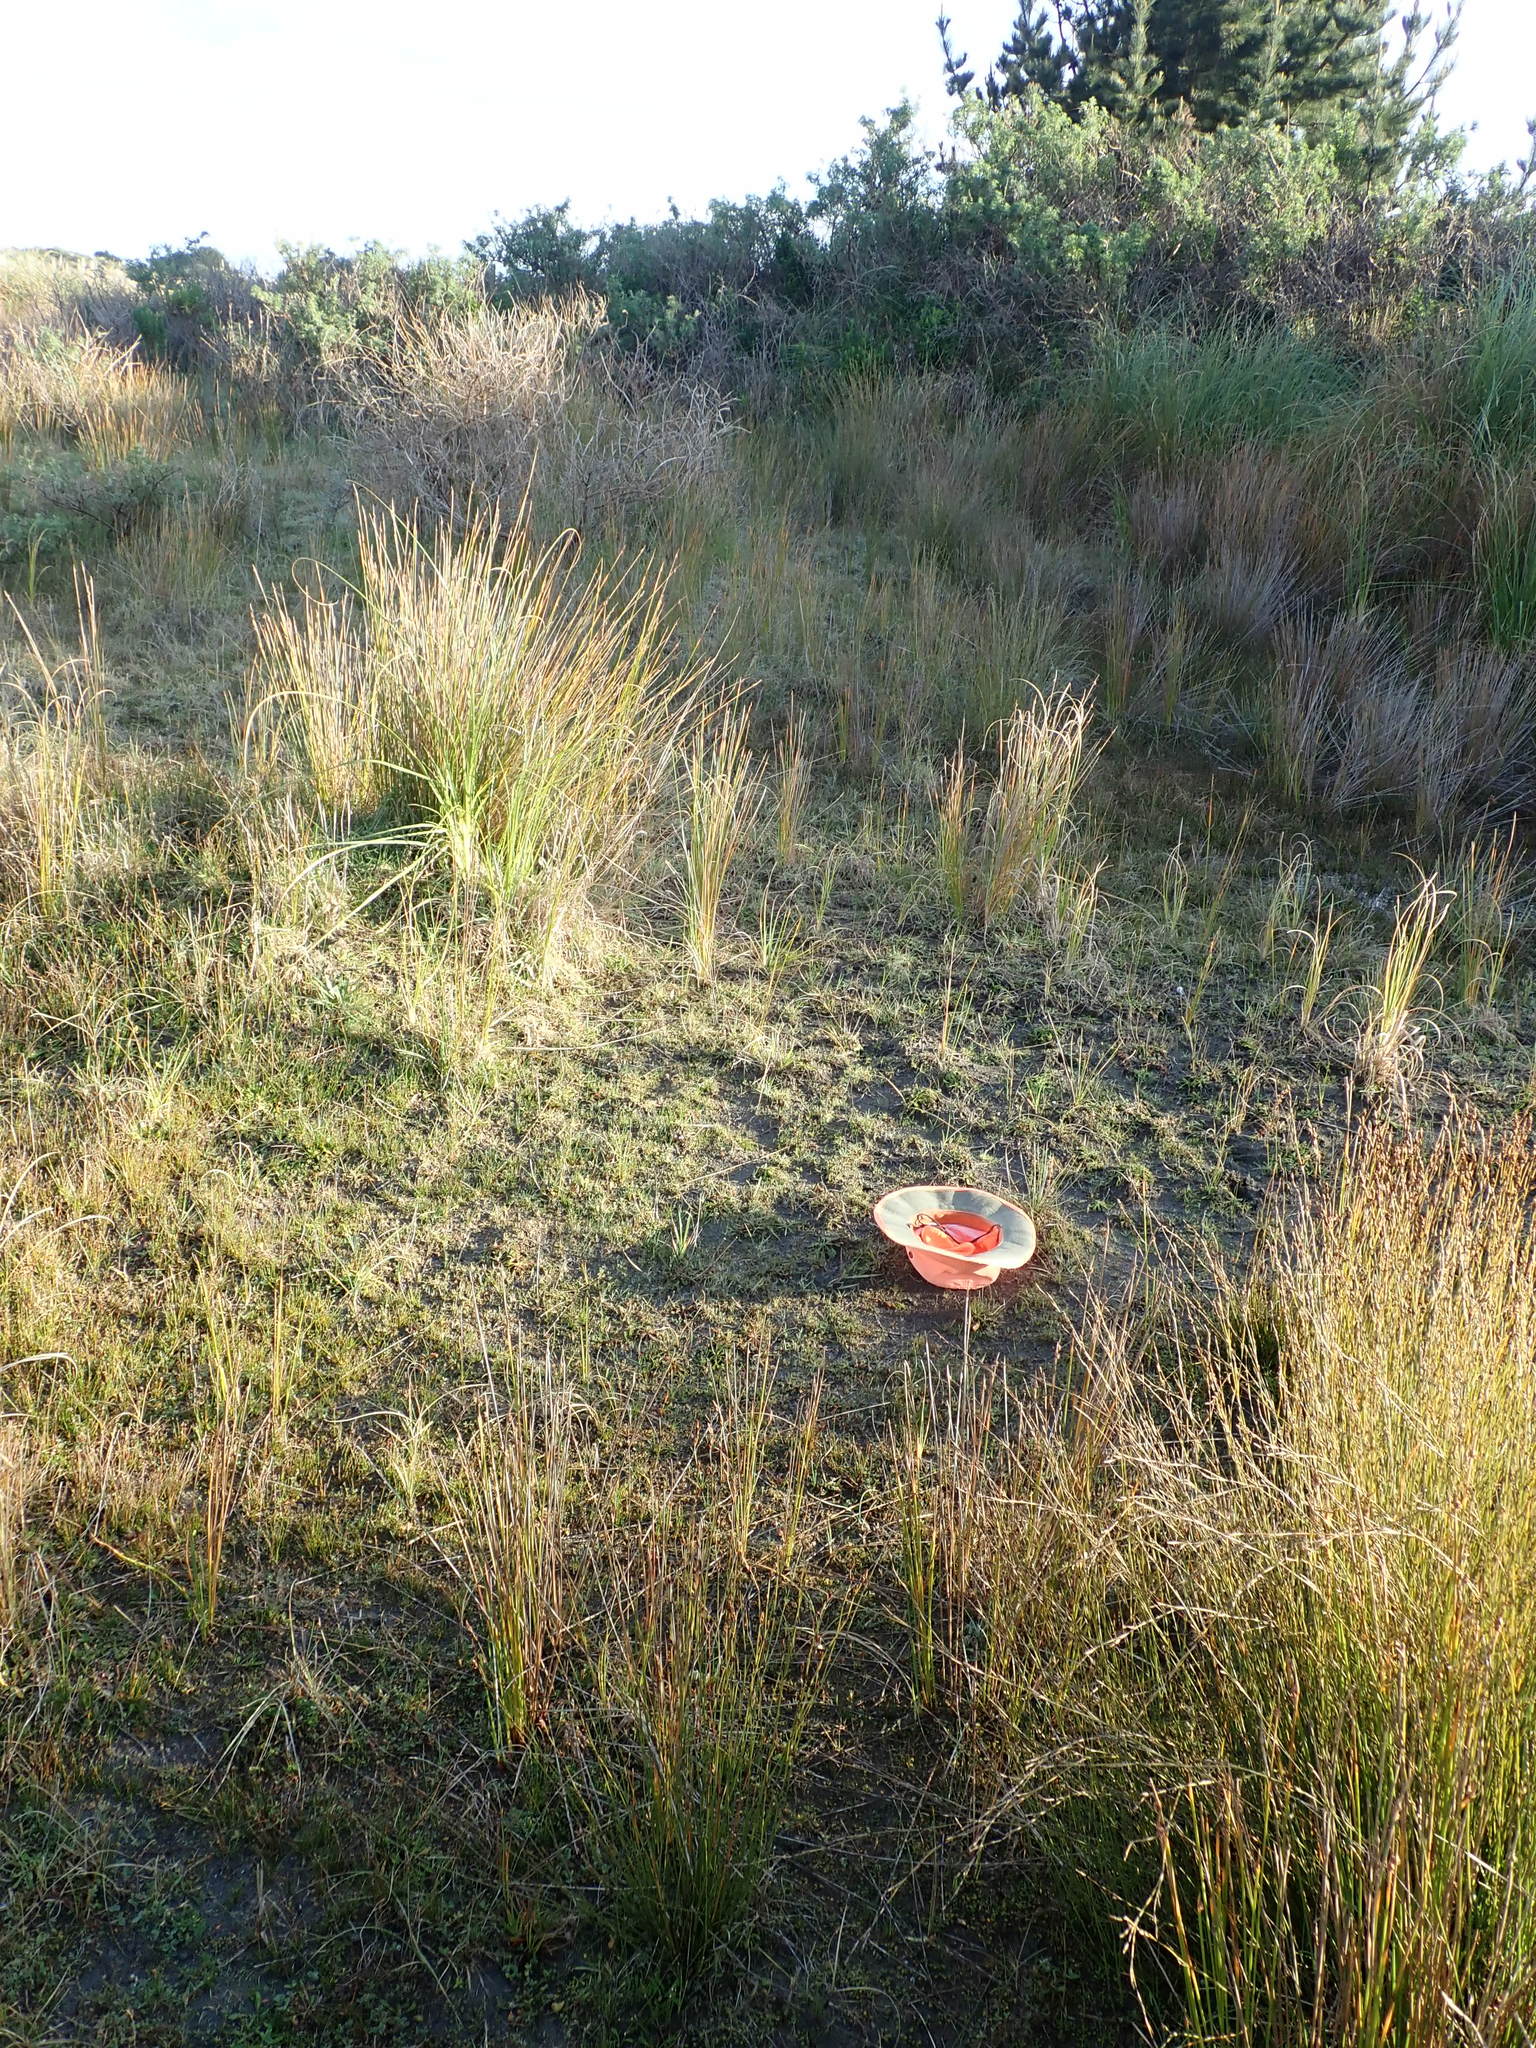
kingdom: Plantae
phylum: Tracheophyta
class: Magnoliopsida
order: Myrtales
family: Onagraceae
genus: Epilobium
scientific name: Epilobium billardiereanum
